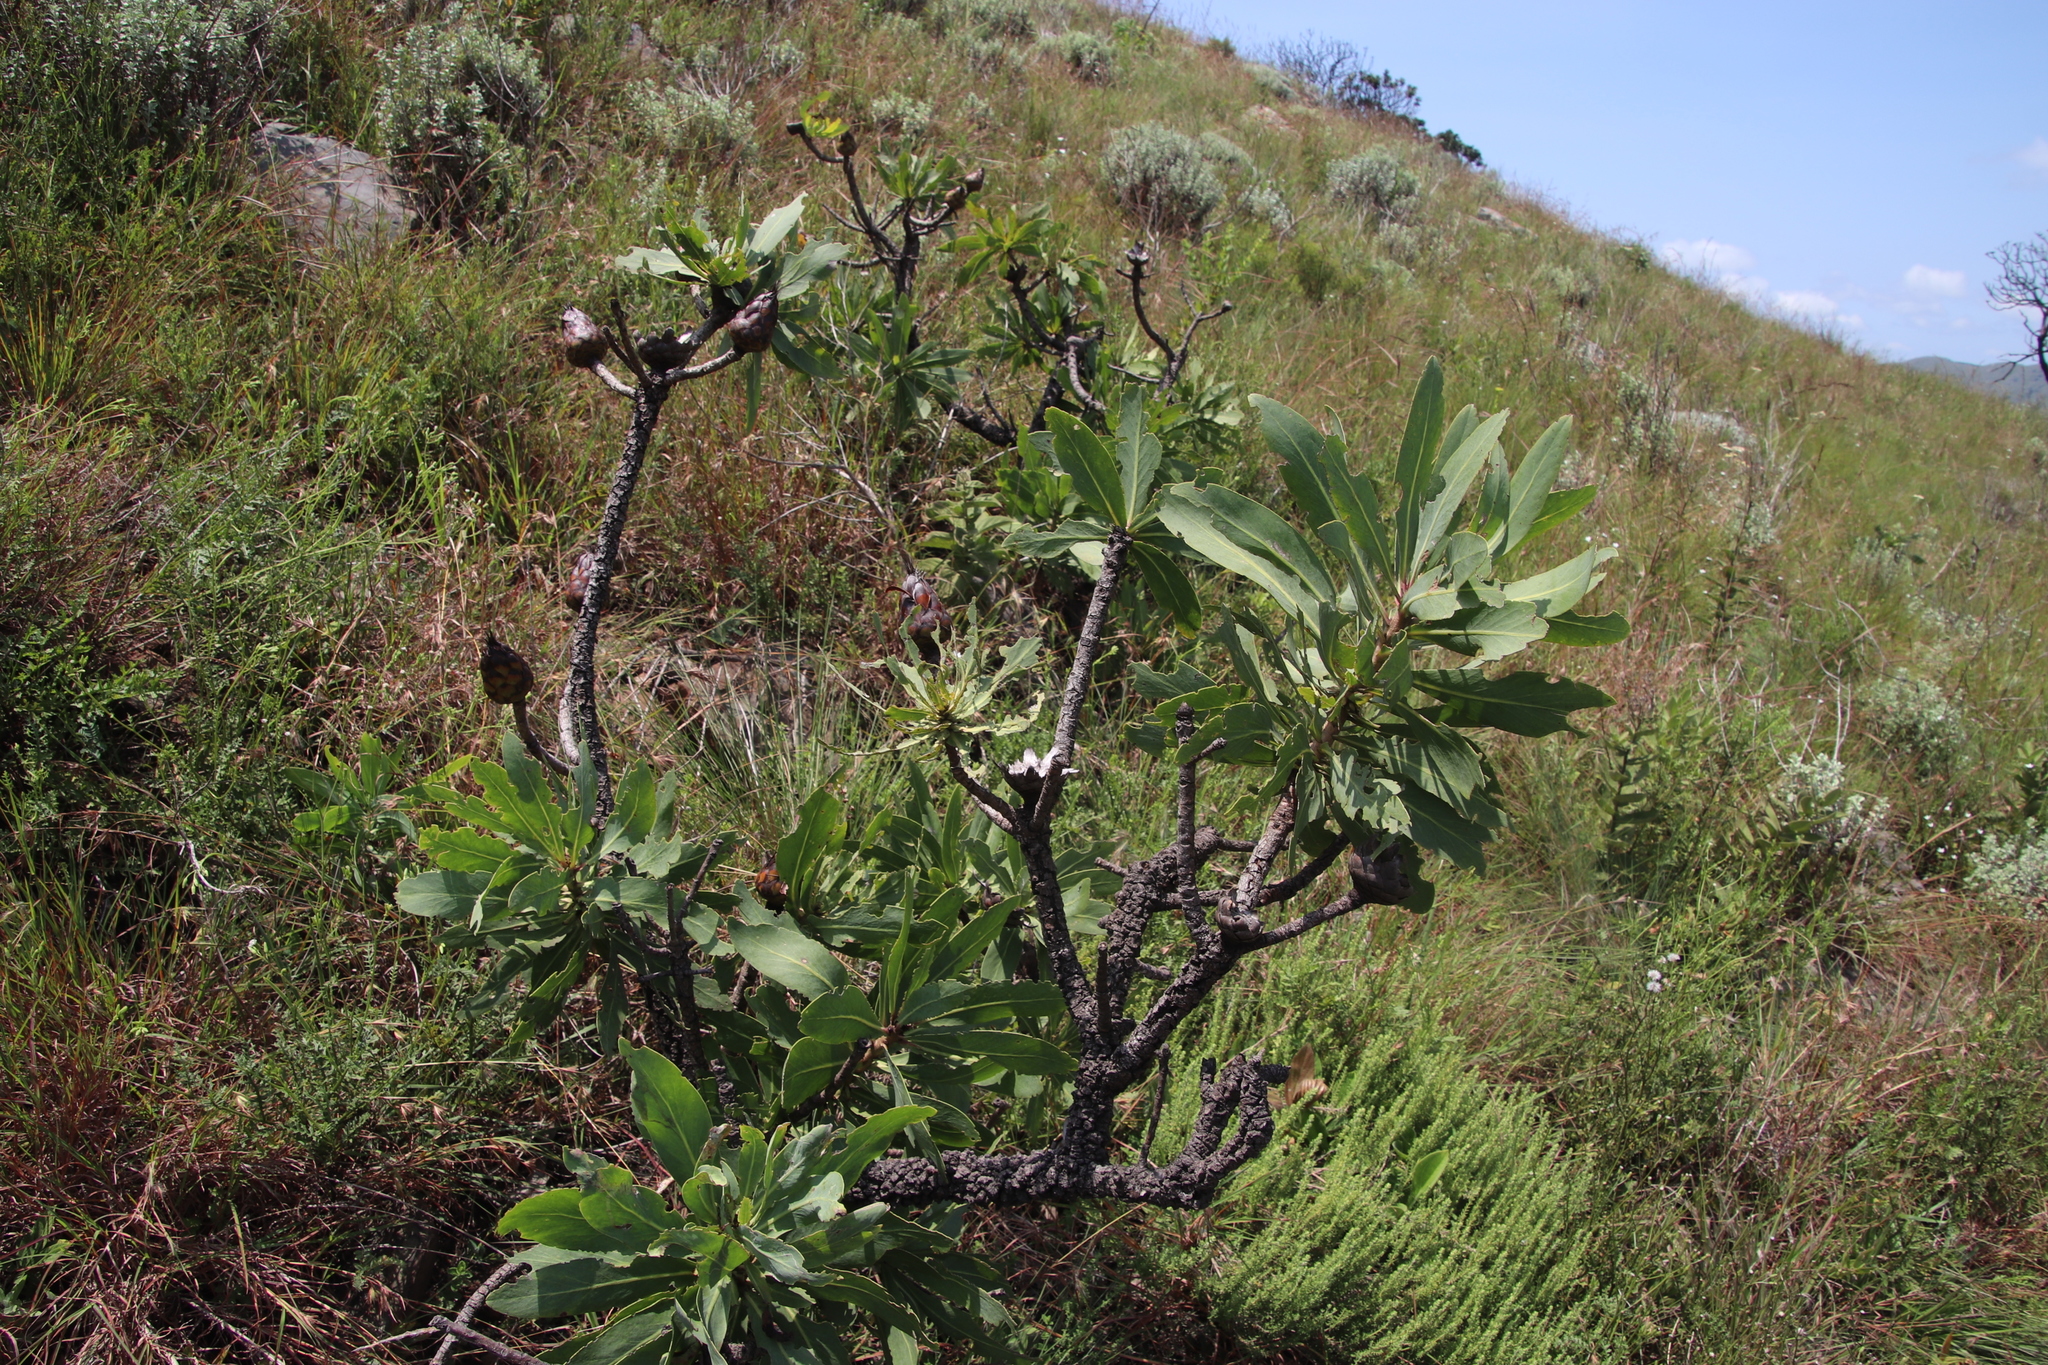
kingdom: Plantae
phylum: Tracheophyta
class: Magnoliopsida
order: Proteales
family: Proteaceae
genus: Protea
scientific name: Protea caffra
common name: Common sugarbush
